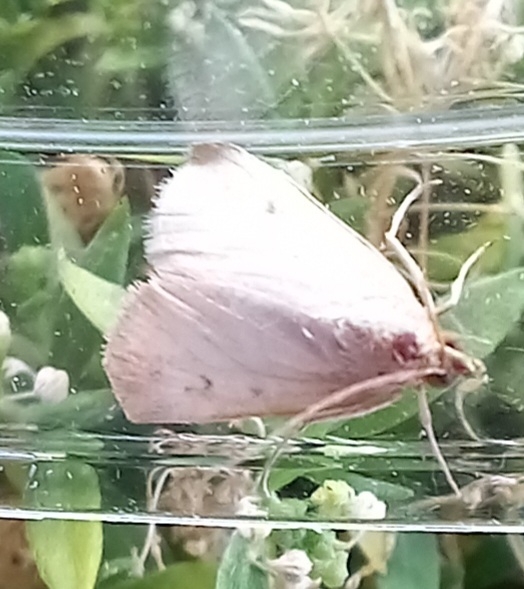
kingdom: Animalia
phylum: Arthropoda
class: Insecta
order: Lepidoptera
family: Crambidae
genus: Achyra
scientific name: Achyra nudalis
